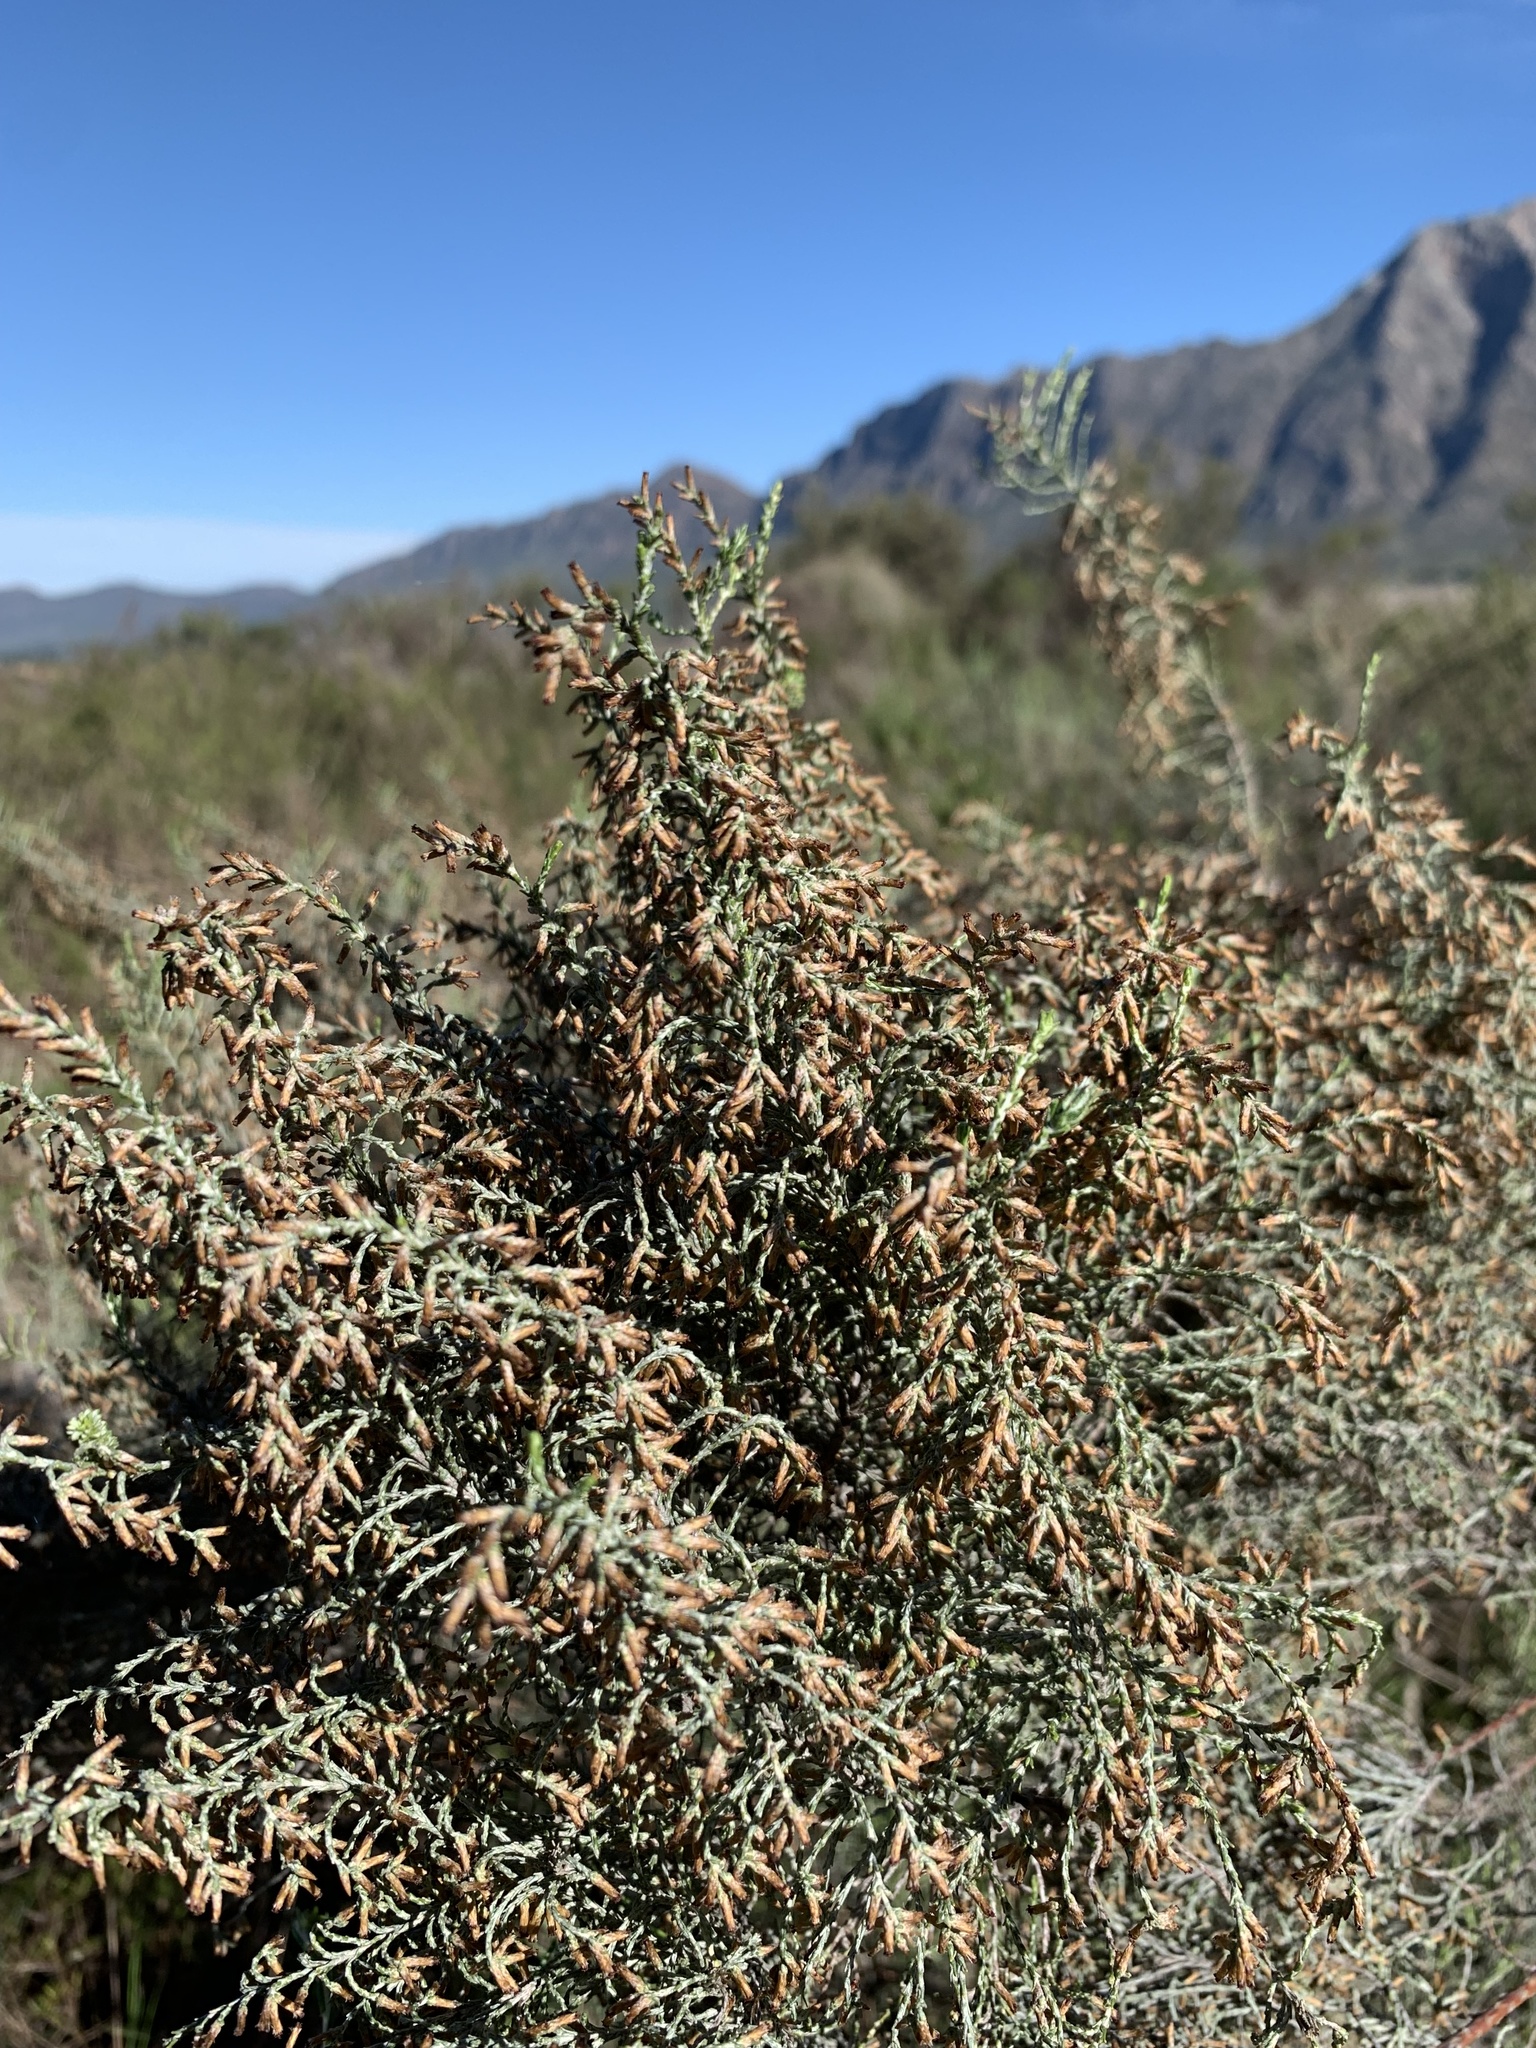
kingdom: Plantae
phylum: Tracheophyta
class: Magnoliopsida
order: Asterales
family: Asteraceae
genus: Dicerothamnus
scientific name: Dicerothamnus rhinocerotis
